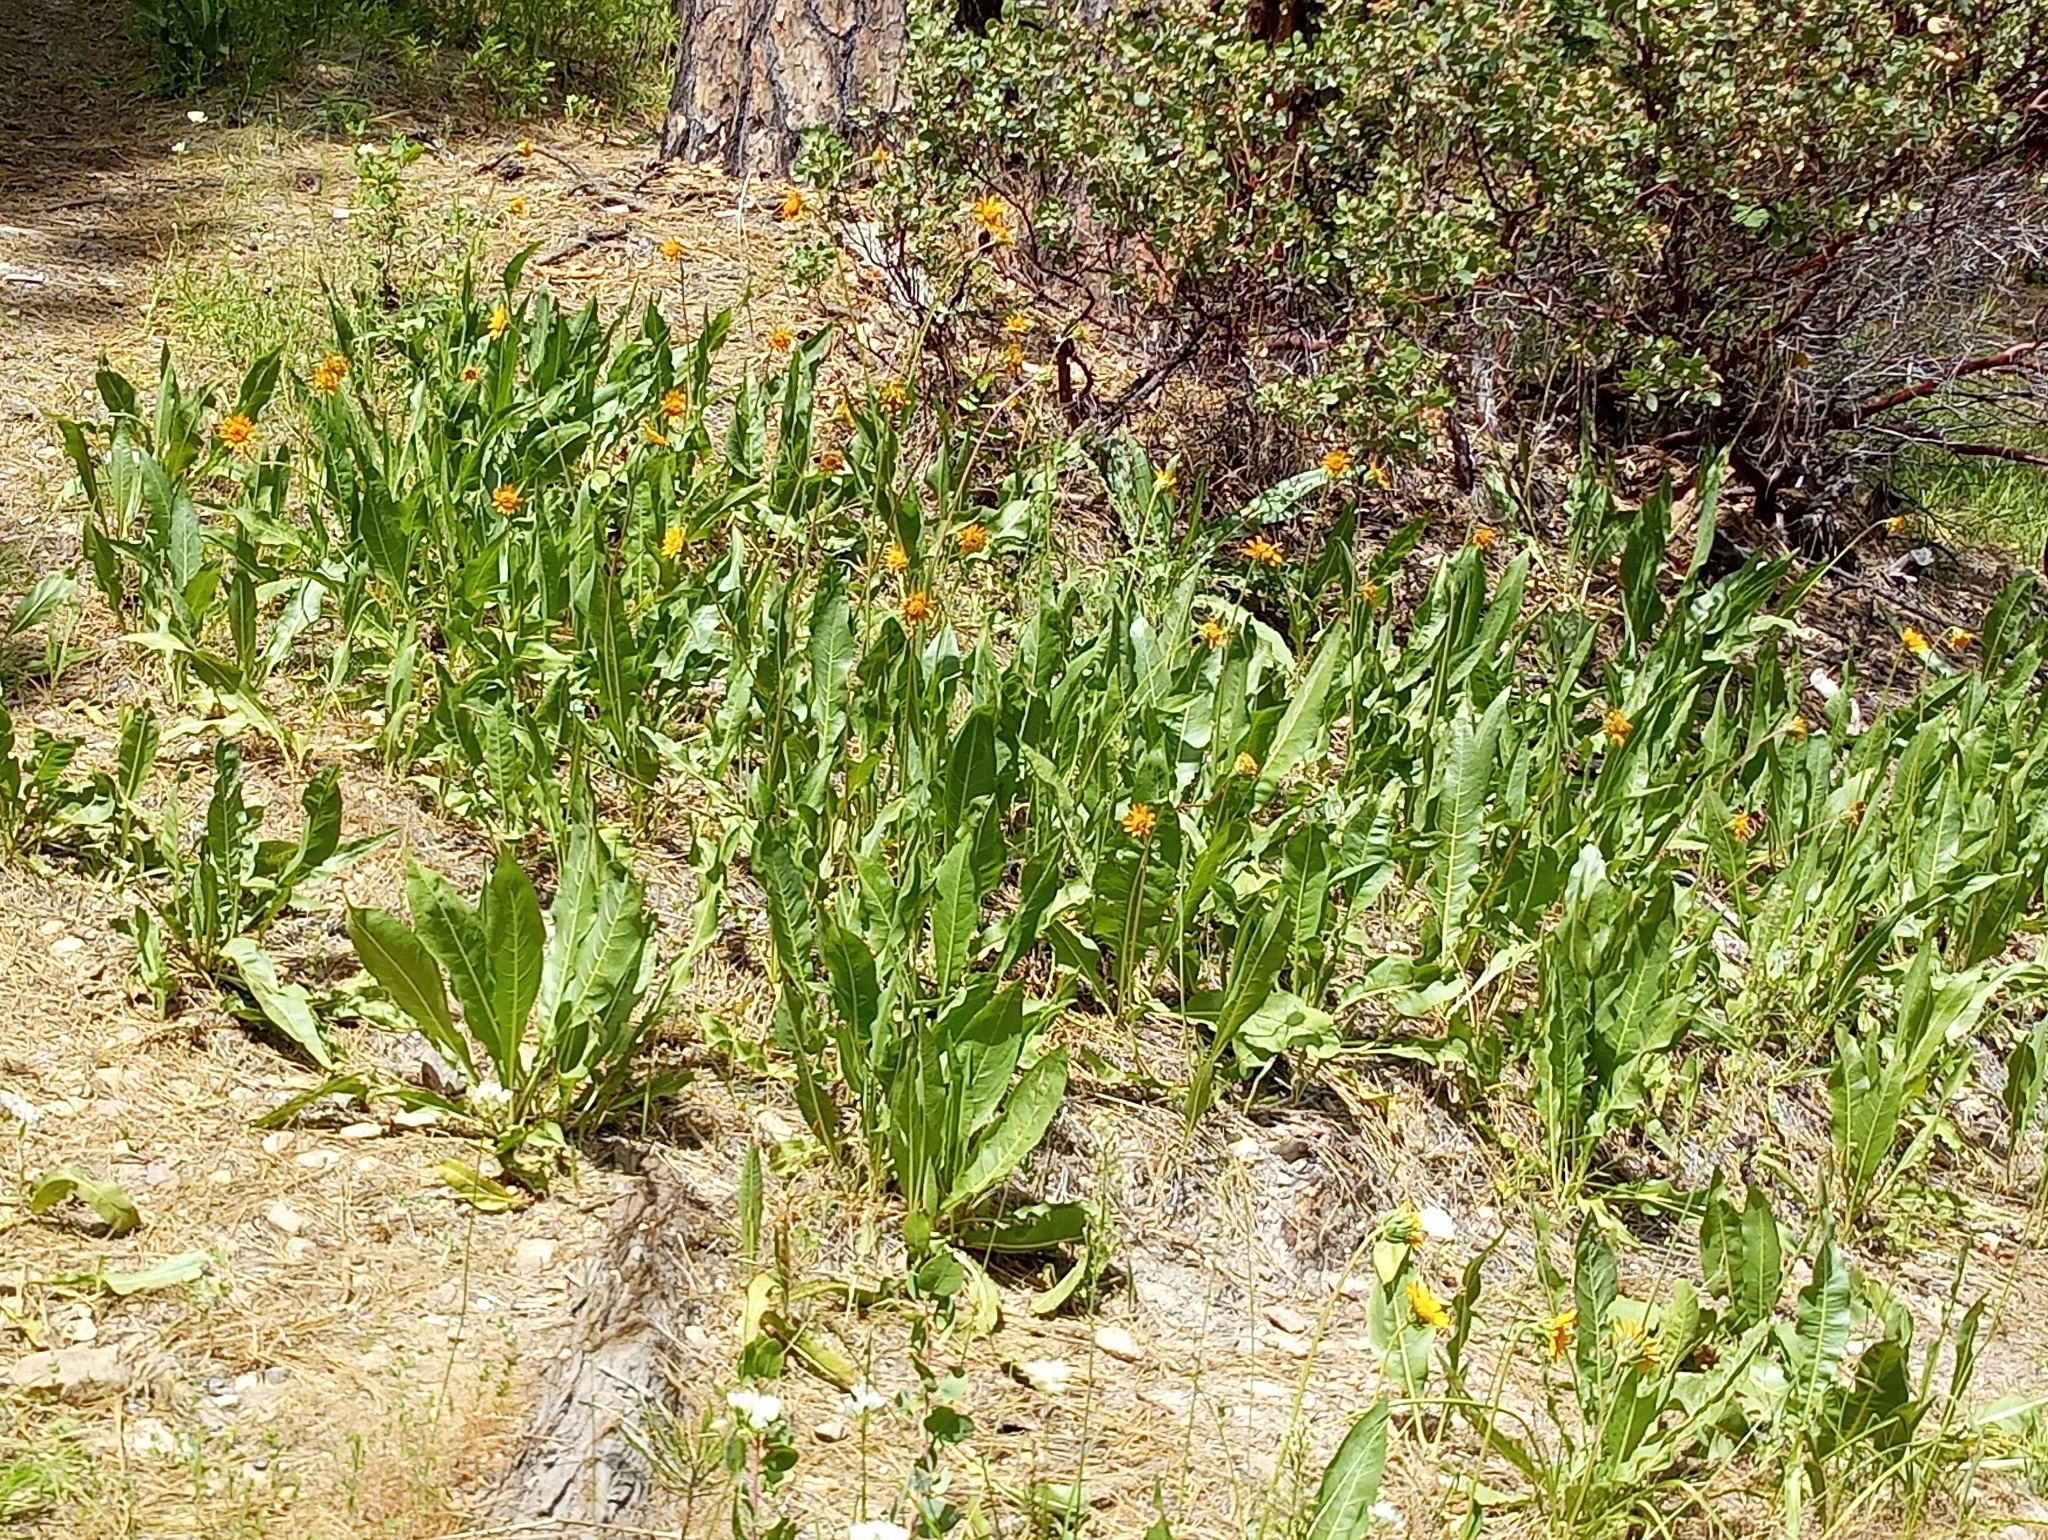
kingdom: Plantae
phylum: Tracheophyta
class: Magnoliopsida
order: Asterales
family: Asteraceae
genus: Wyethia
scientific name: Wyethia angustifolia
